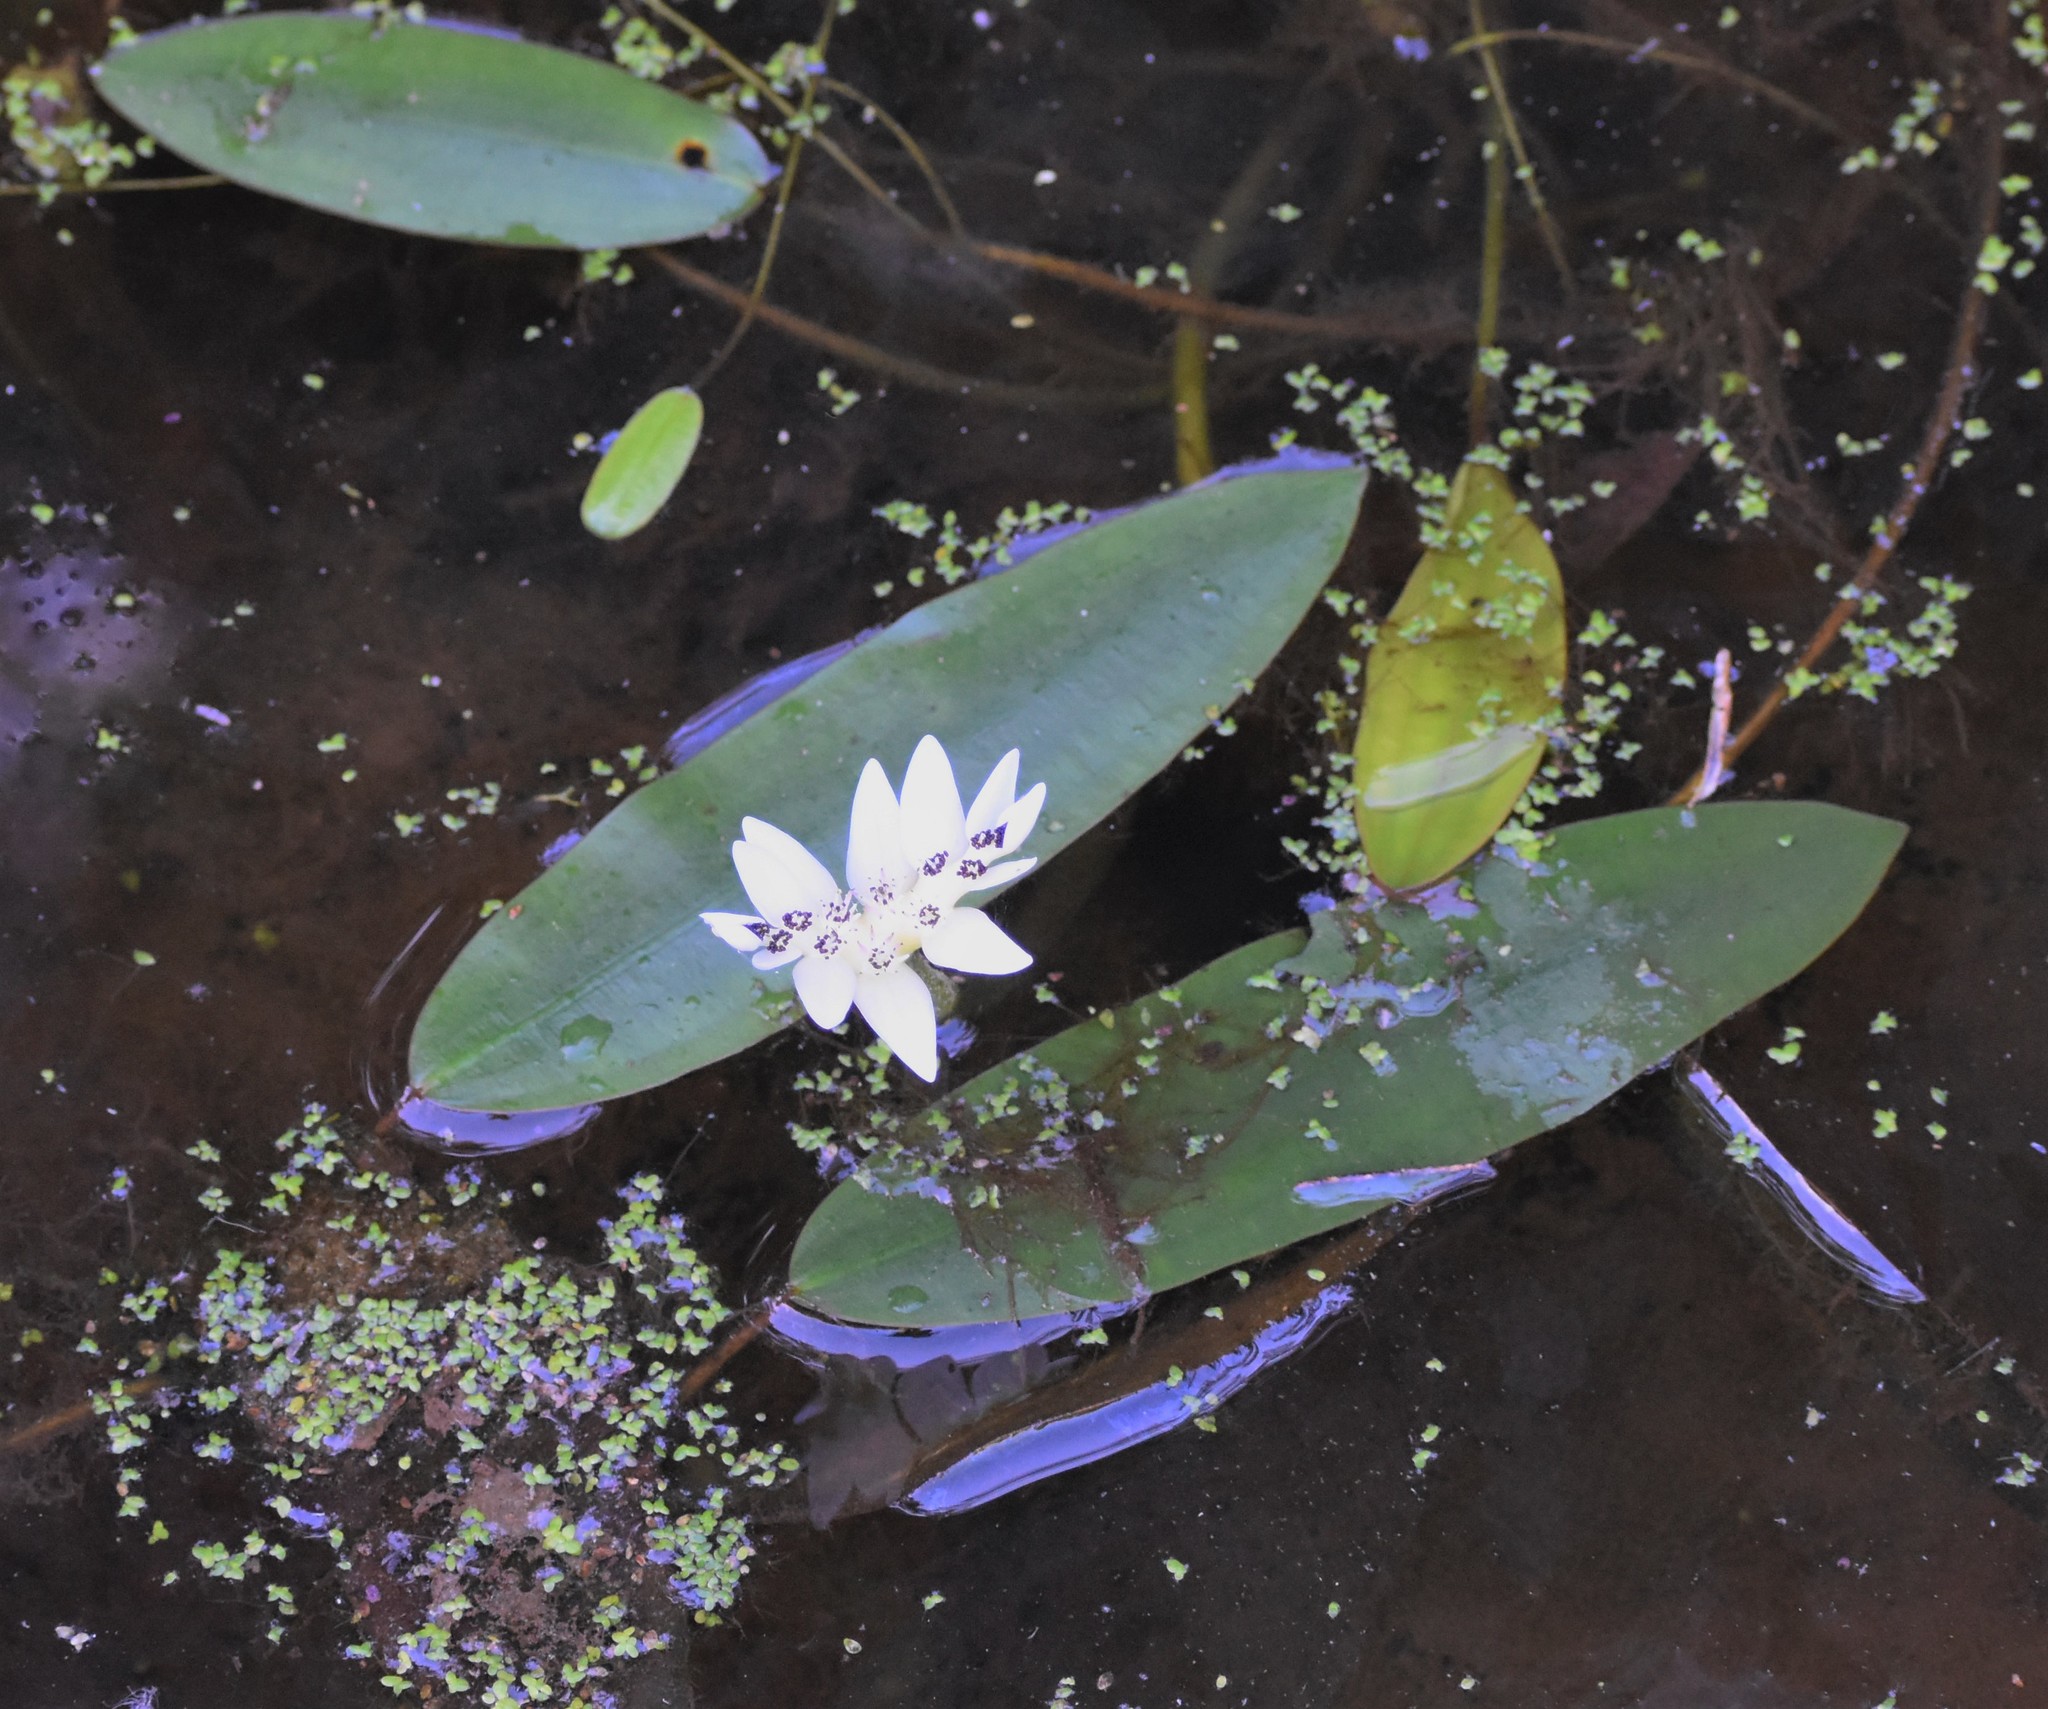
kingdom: Plantae
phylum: Tracheophyta
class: Liliopsida
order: Alismatales
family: Aponogetonaceae
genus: Aponogeton
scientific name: Aponogeton distachyos
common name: Cape-pondweed
